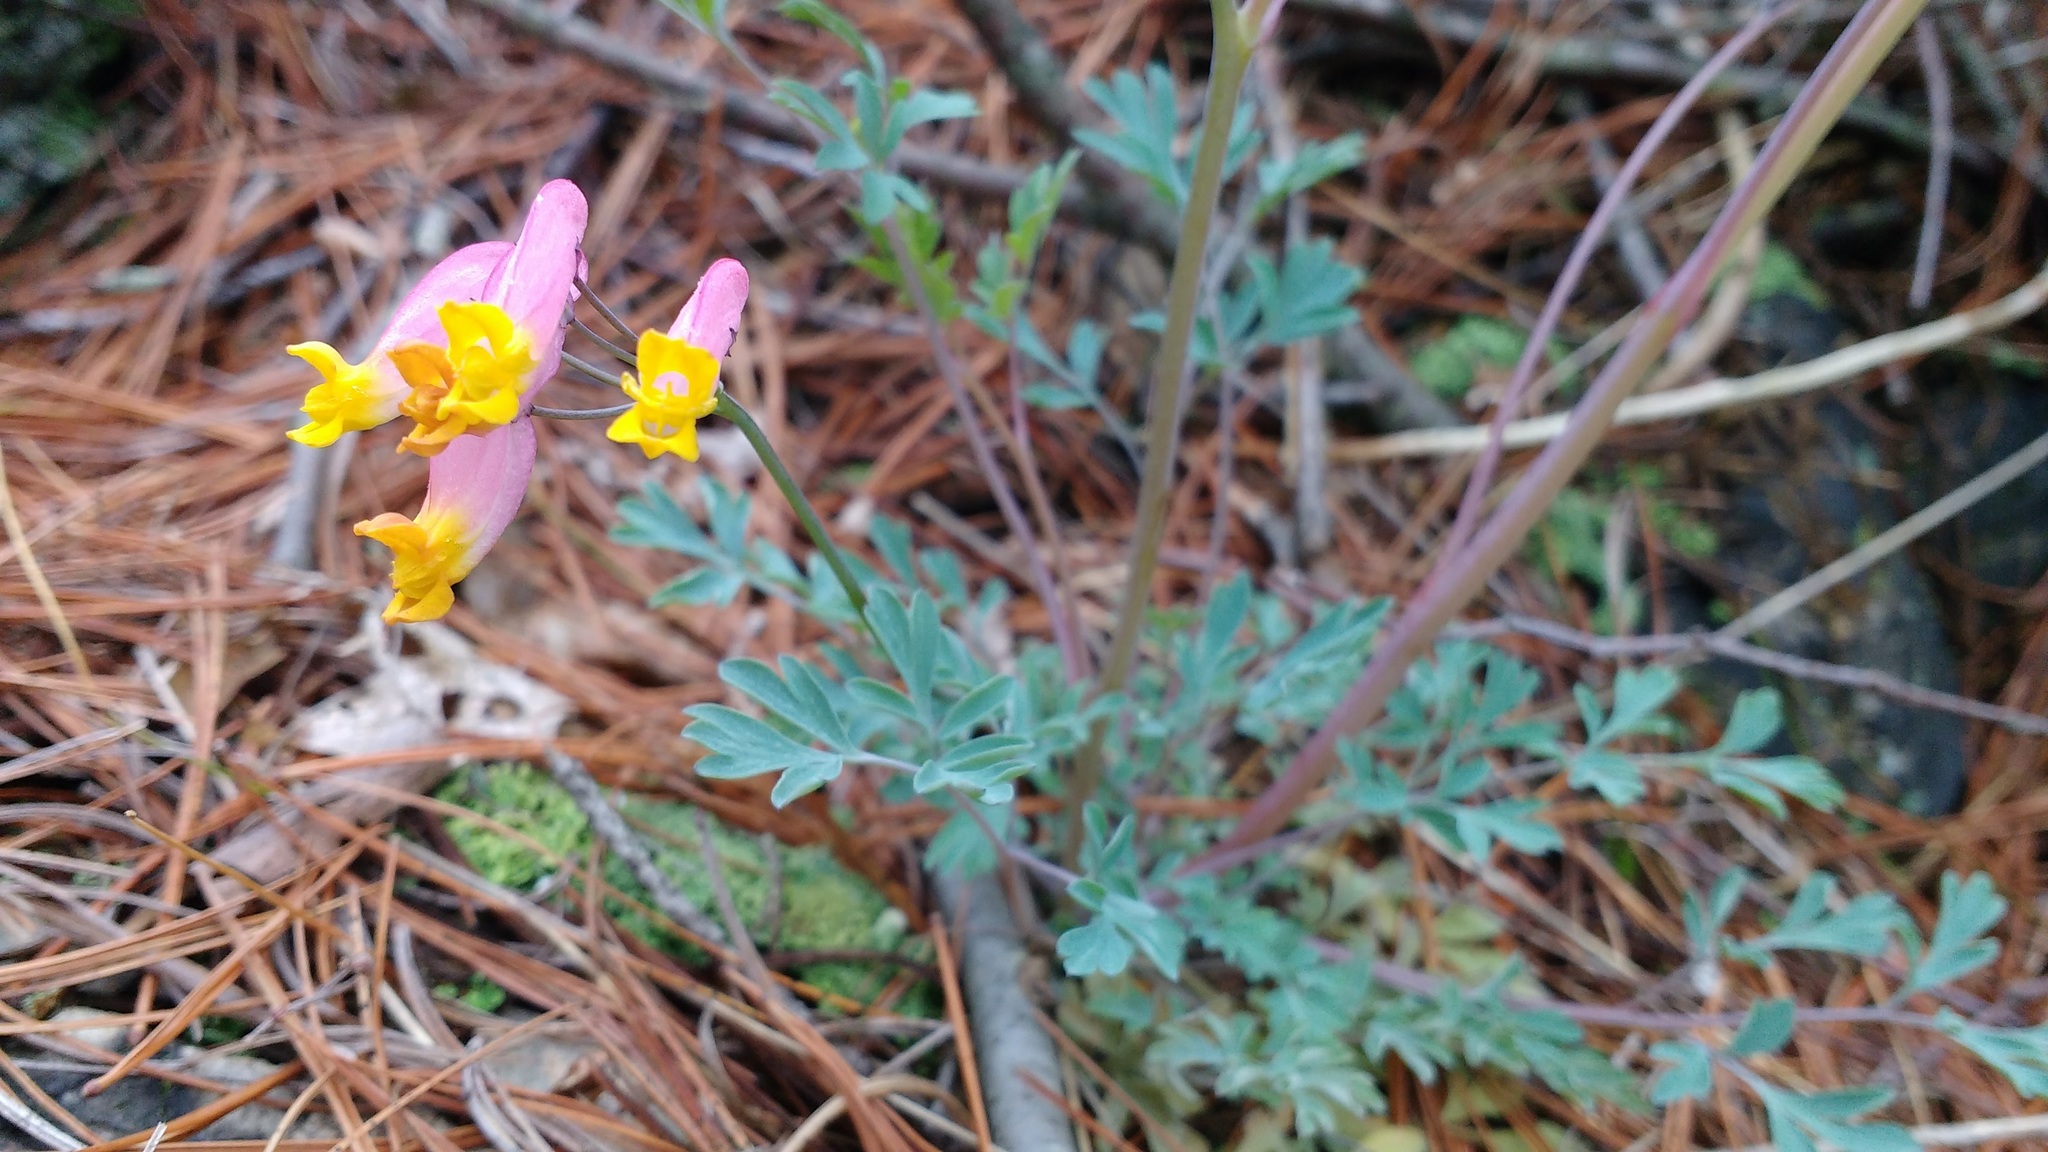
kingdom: Plantae
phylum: Tracheophyta
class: Magnoliopsida
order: Ranunculales
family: Papaveraceae
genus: Capnoides
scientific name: Capnoides sempervirens
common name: Rock harlequin
